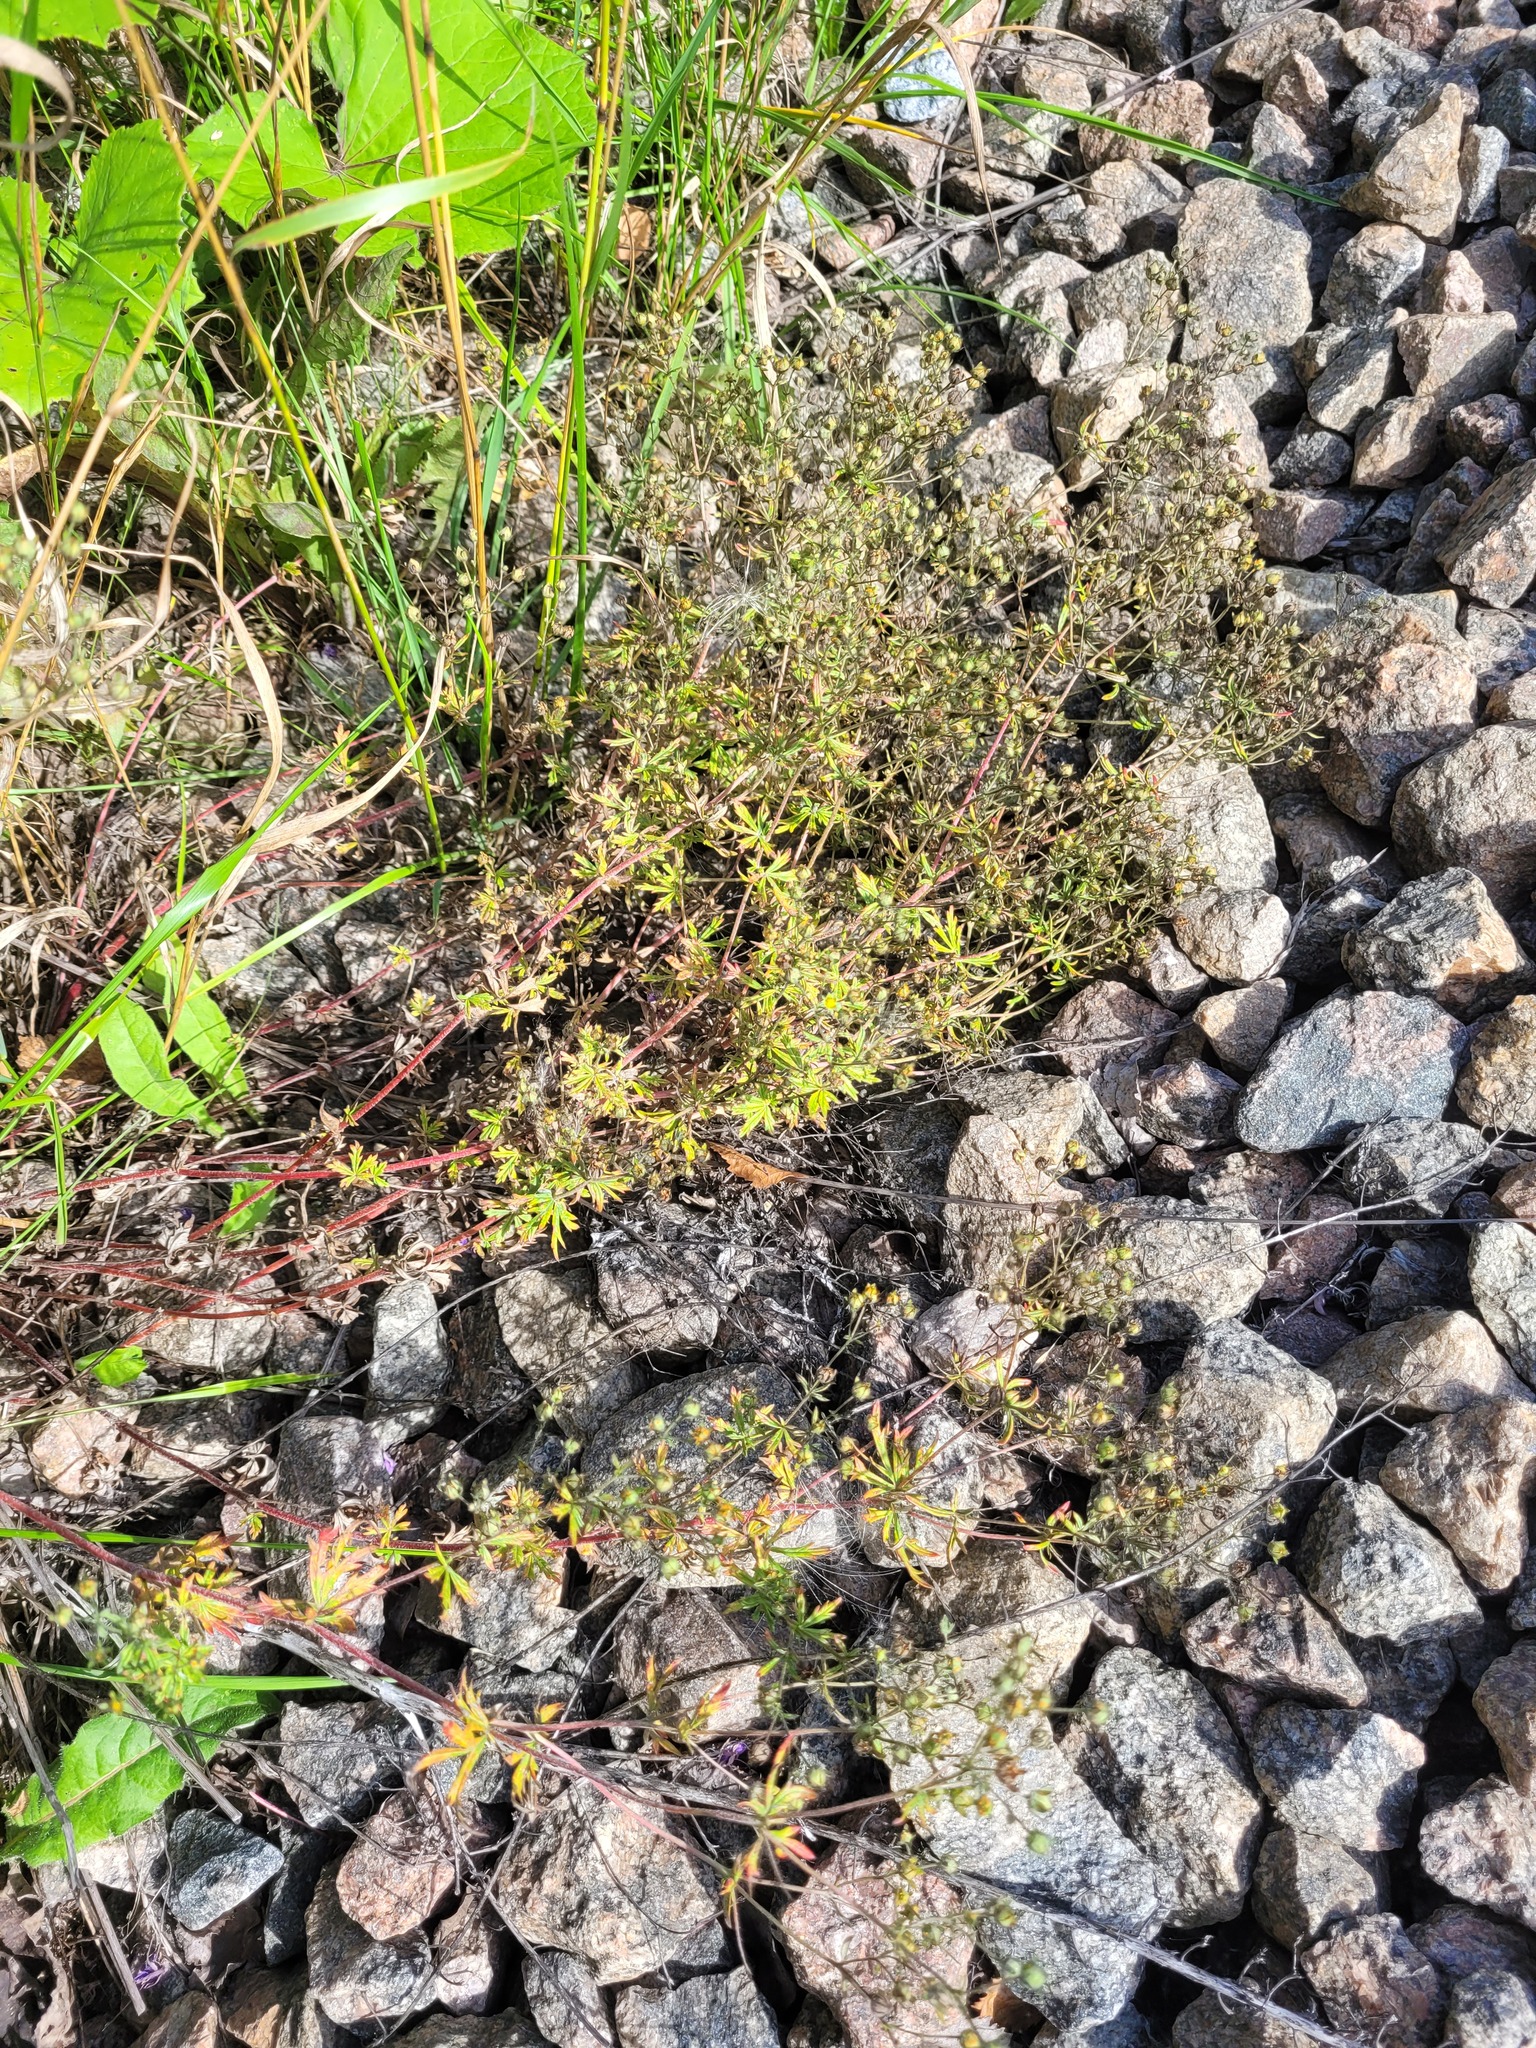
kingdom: Plantae
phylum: Tracheophyta
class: Magnoliopsida
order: Rosales
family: Rosaceae
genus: Potentilla
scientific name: Potentilla argentea
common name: Hoary cinquefoil
